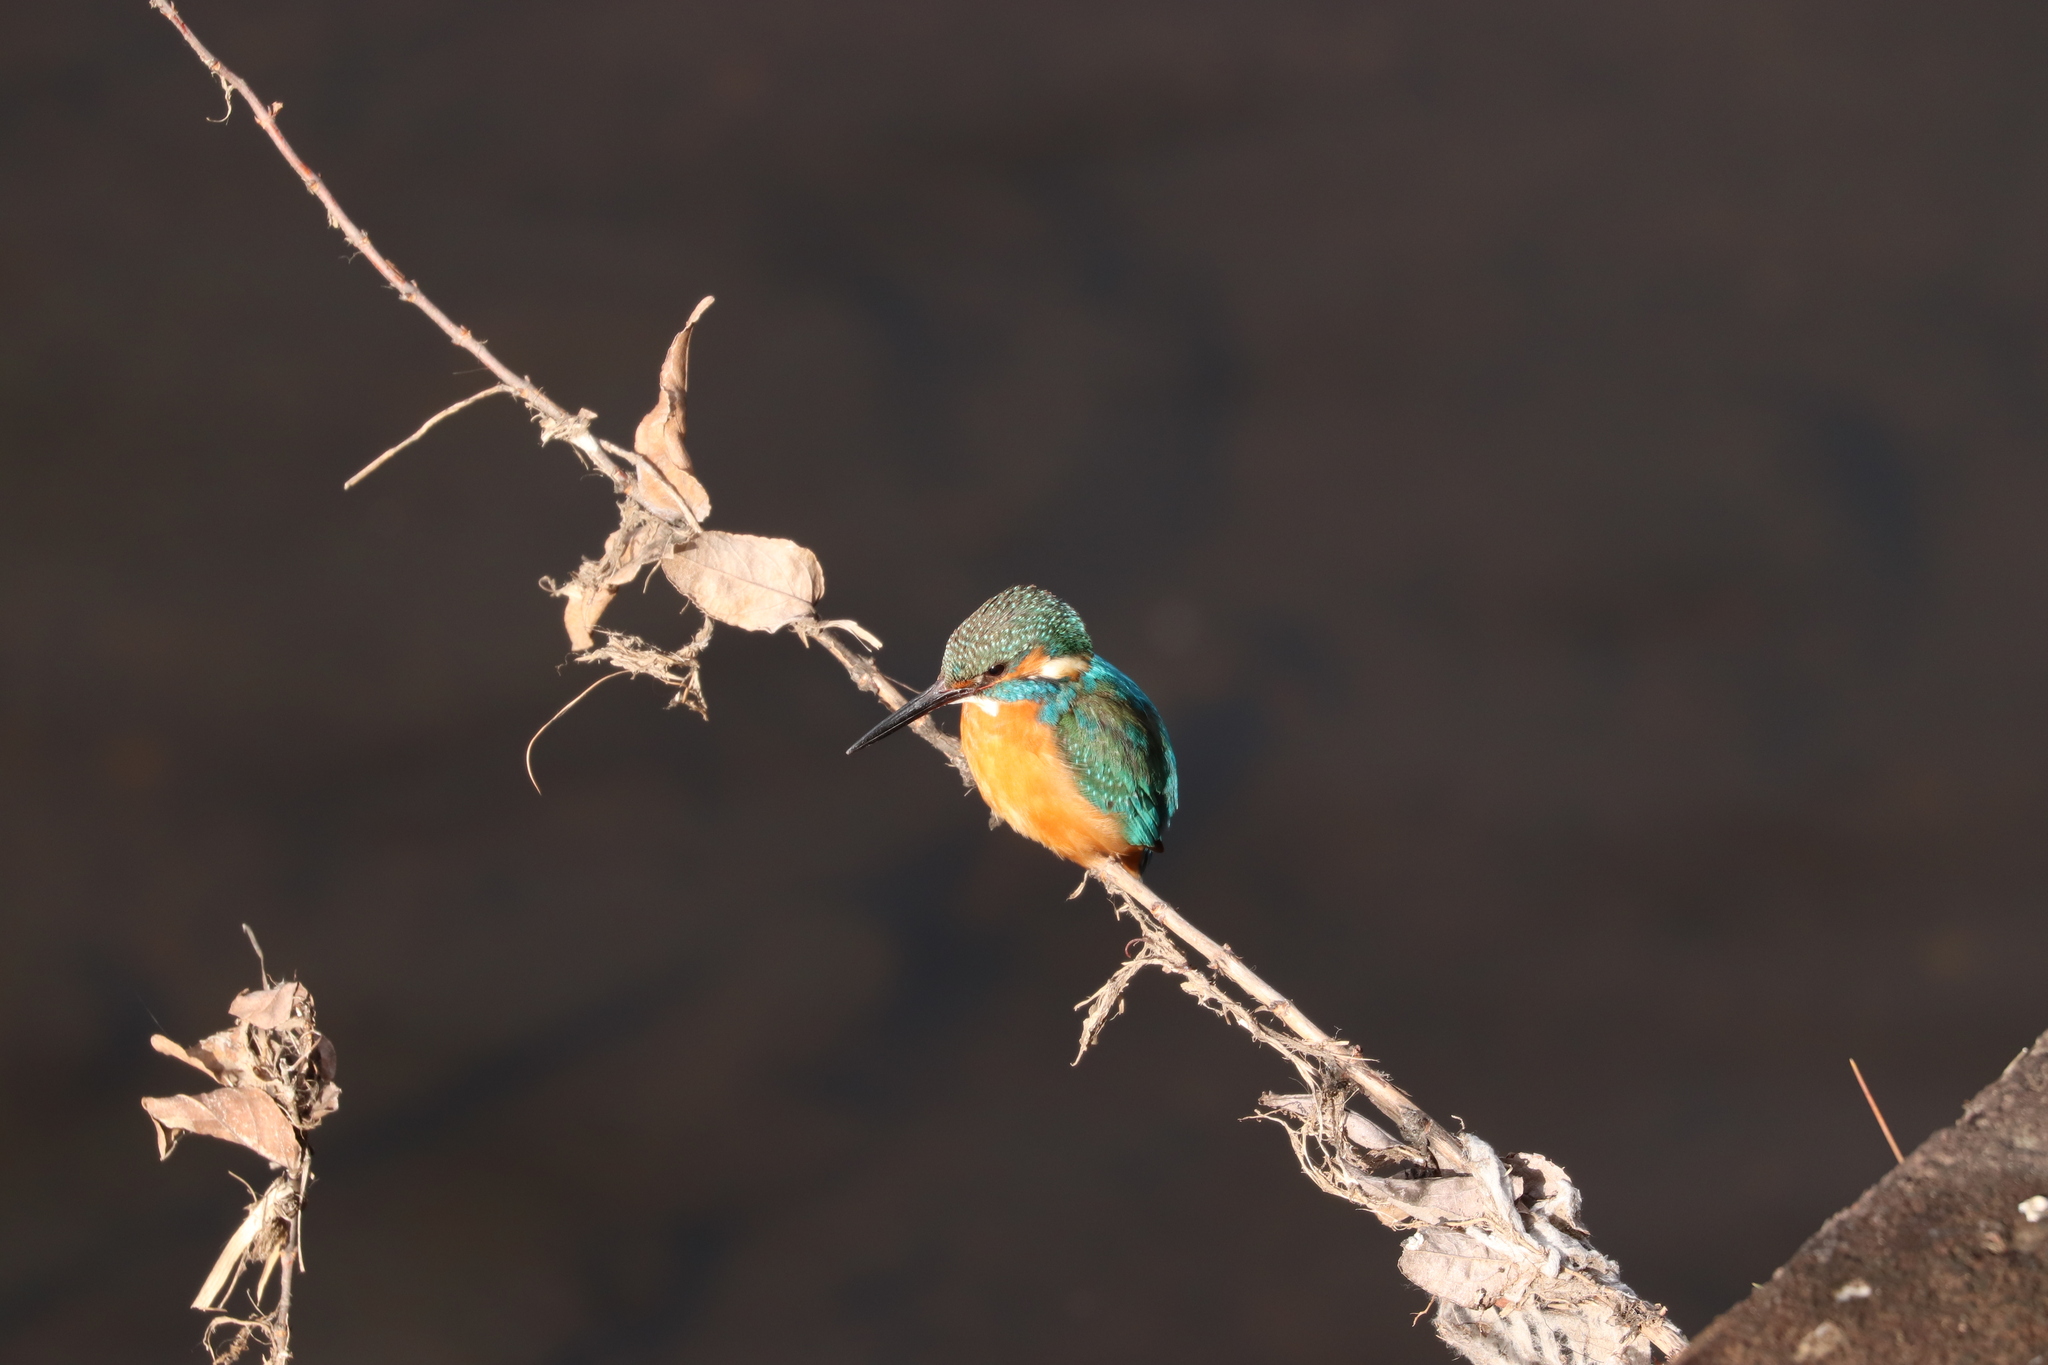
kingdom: Animalia
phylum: Chordata
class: Aves
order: Coraciiformes
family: Alcedinidae
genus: Alcedo
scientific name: Alcedo atthis
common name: Common kingfisher
